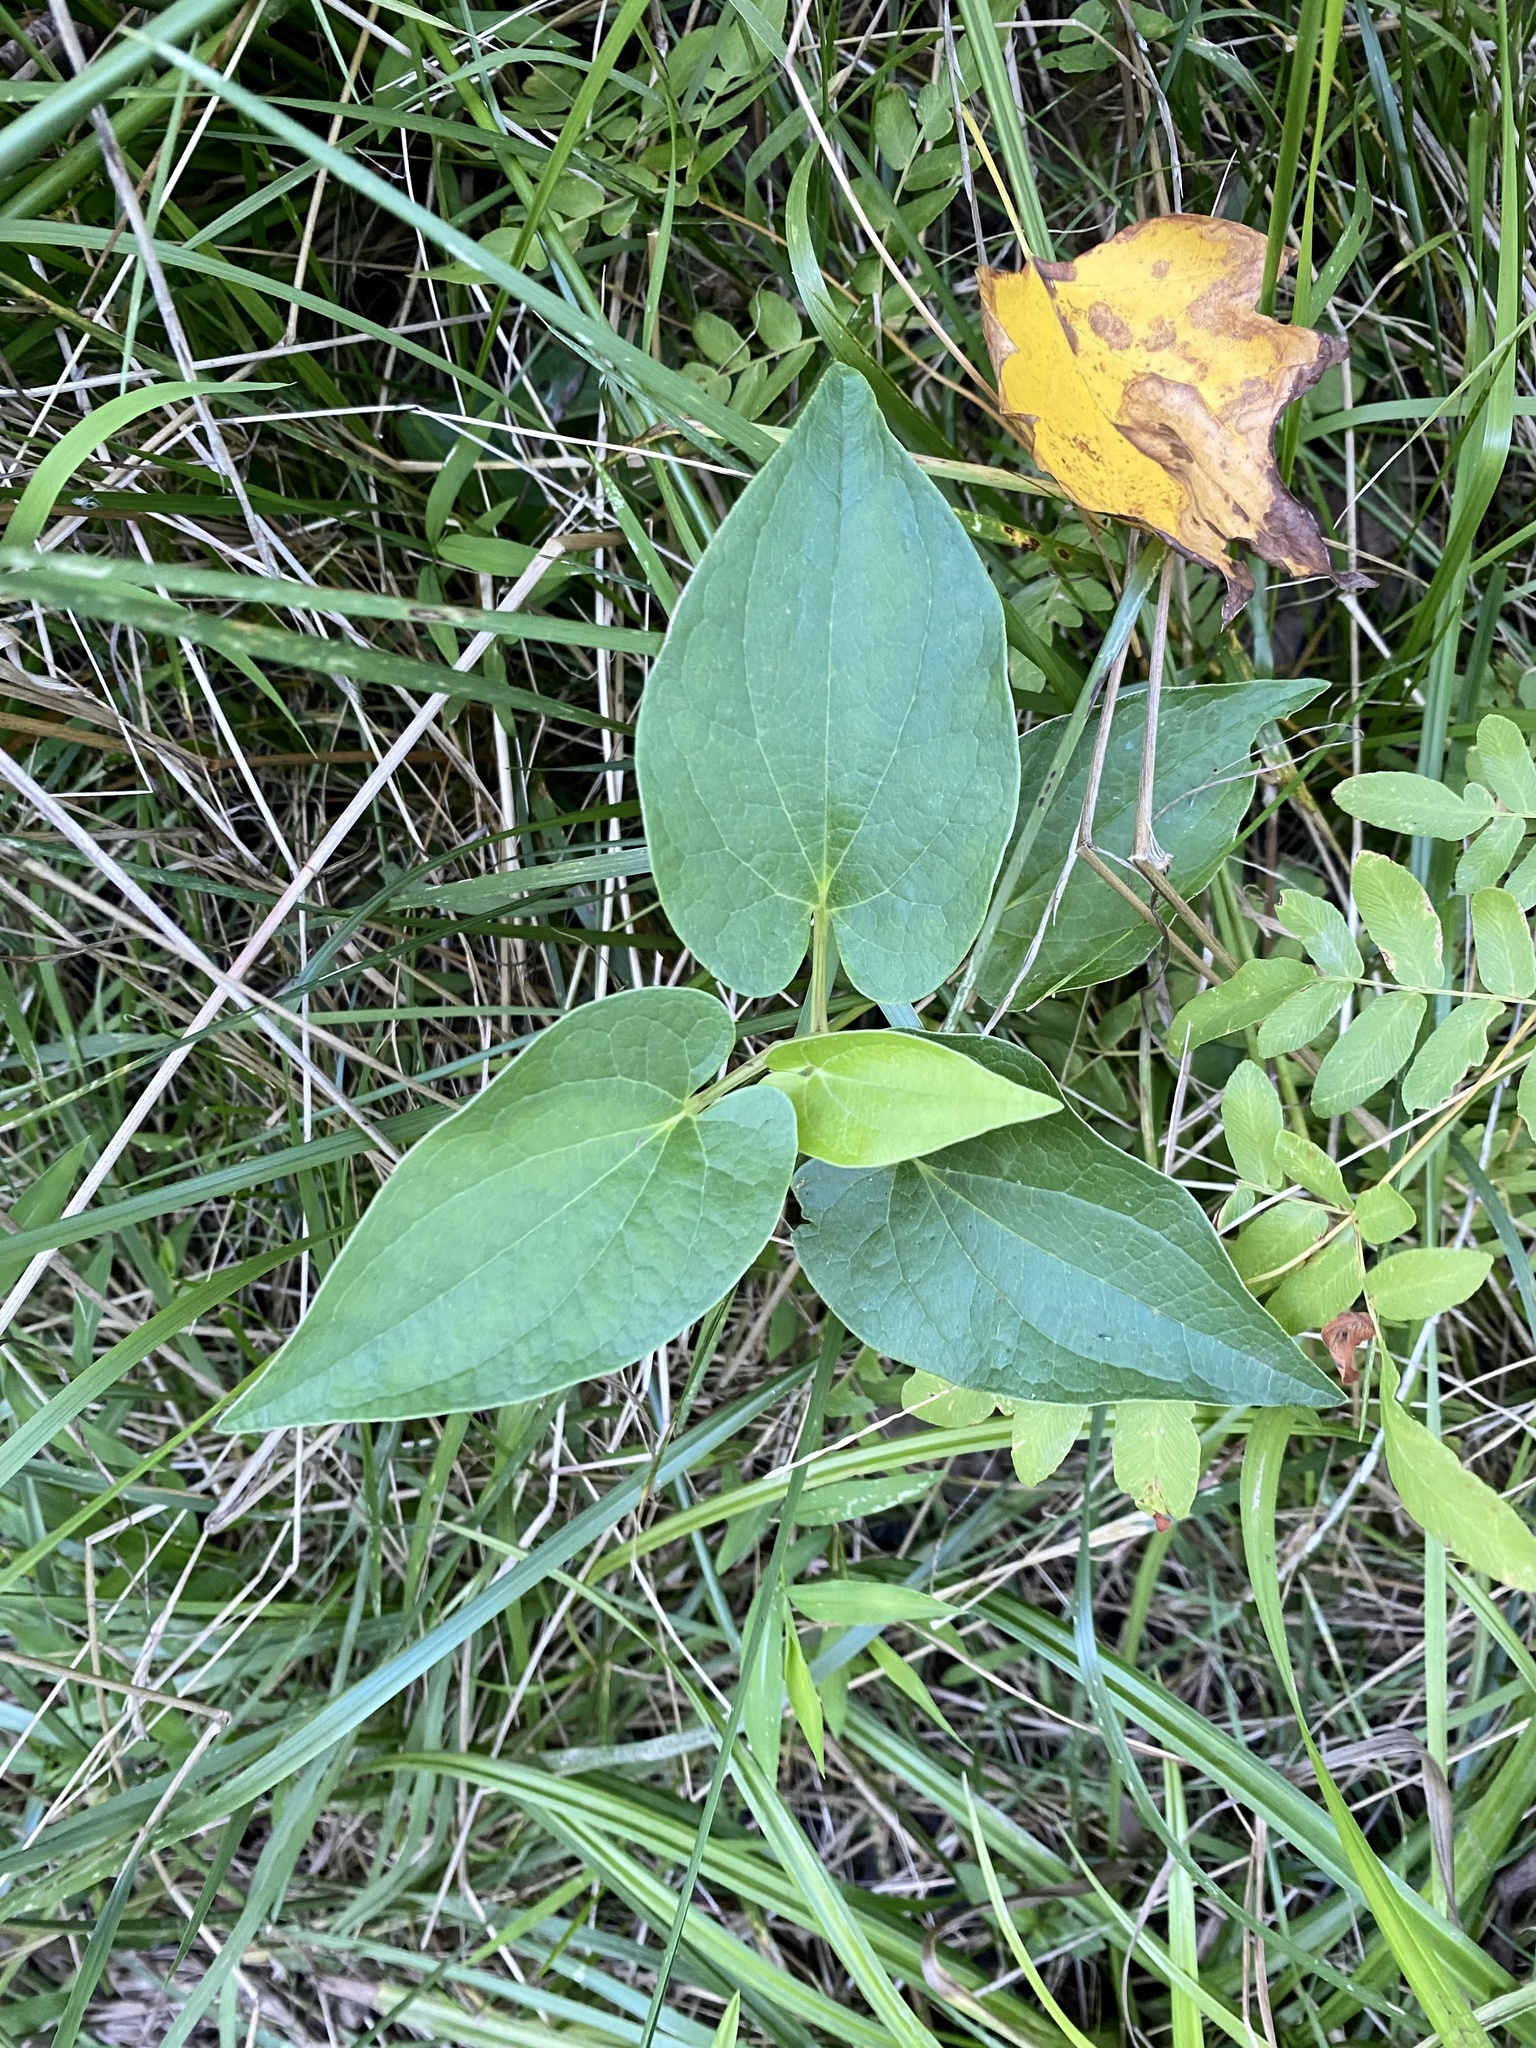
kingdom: Plantae
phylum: Tracheophyta
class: Magnoliopsida
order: Piperales
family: Saururaceae
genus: Saururus
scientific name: Saururus cernuus
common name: Lizard's-tail
